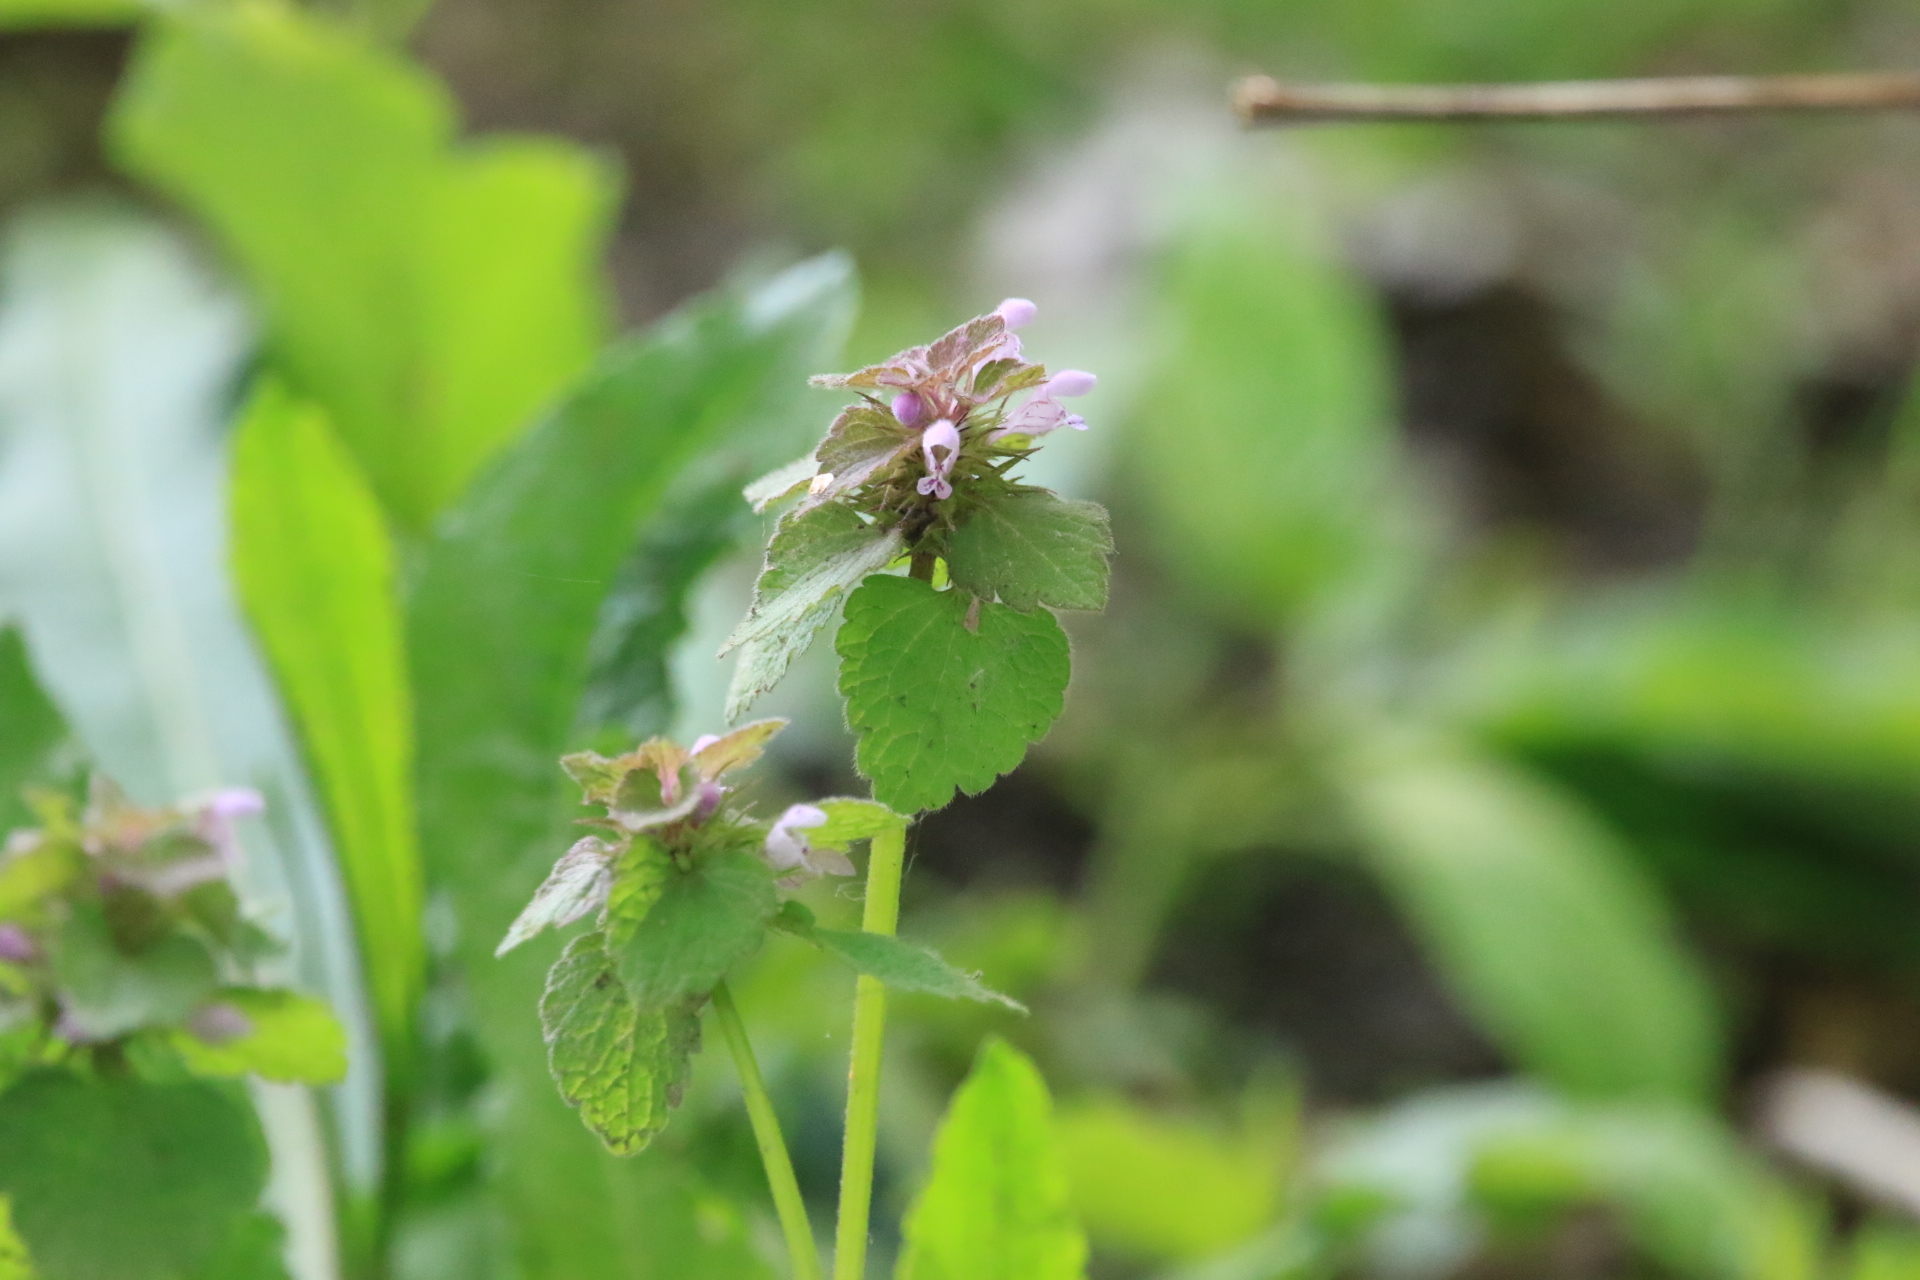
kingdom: Plantae
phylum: Tracheophyta
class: Magnoliopsida
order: Lamiales
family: Lamiaceae
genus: Lamium
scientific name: Lamium purpureum
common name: Red dead-nettle
